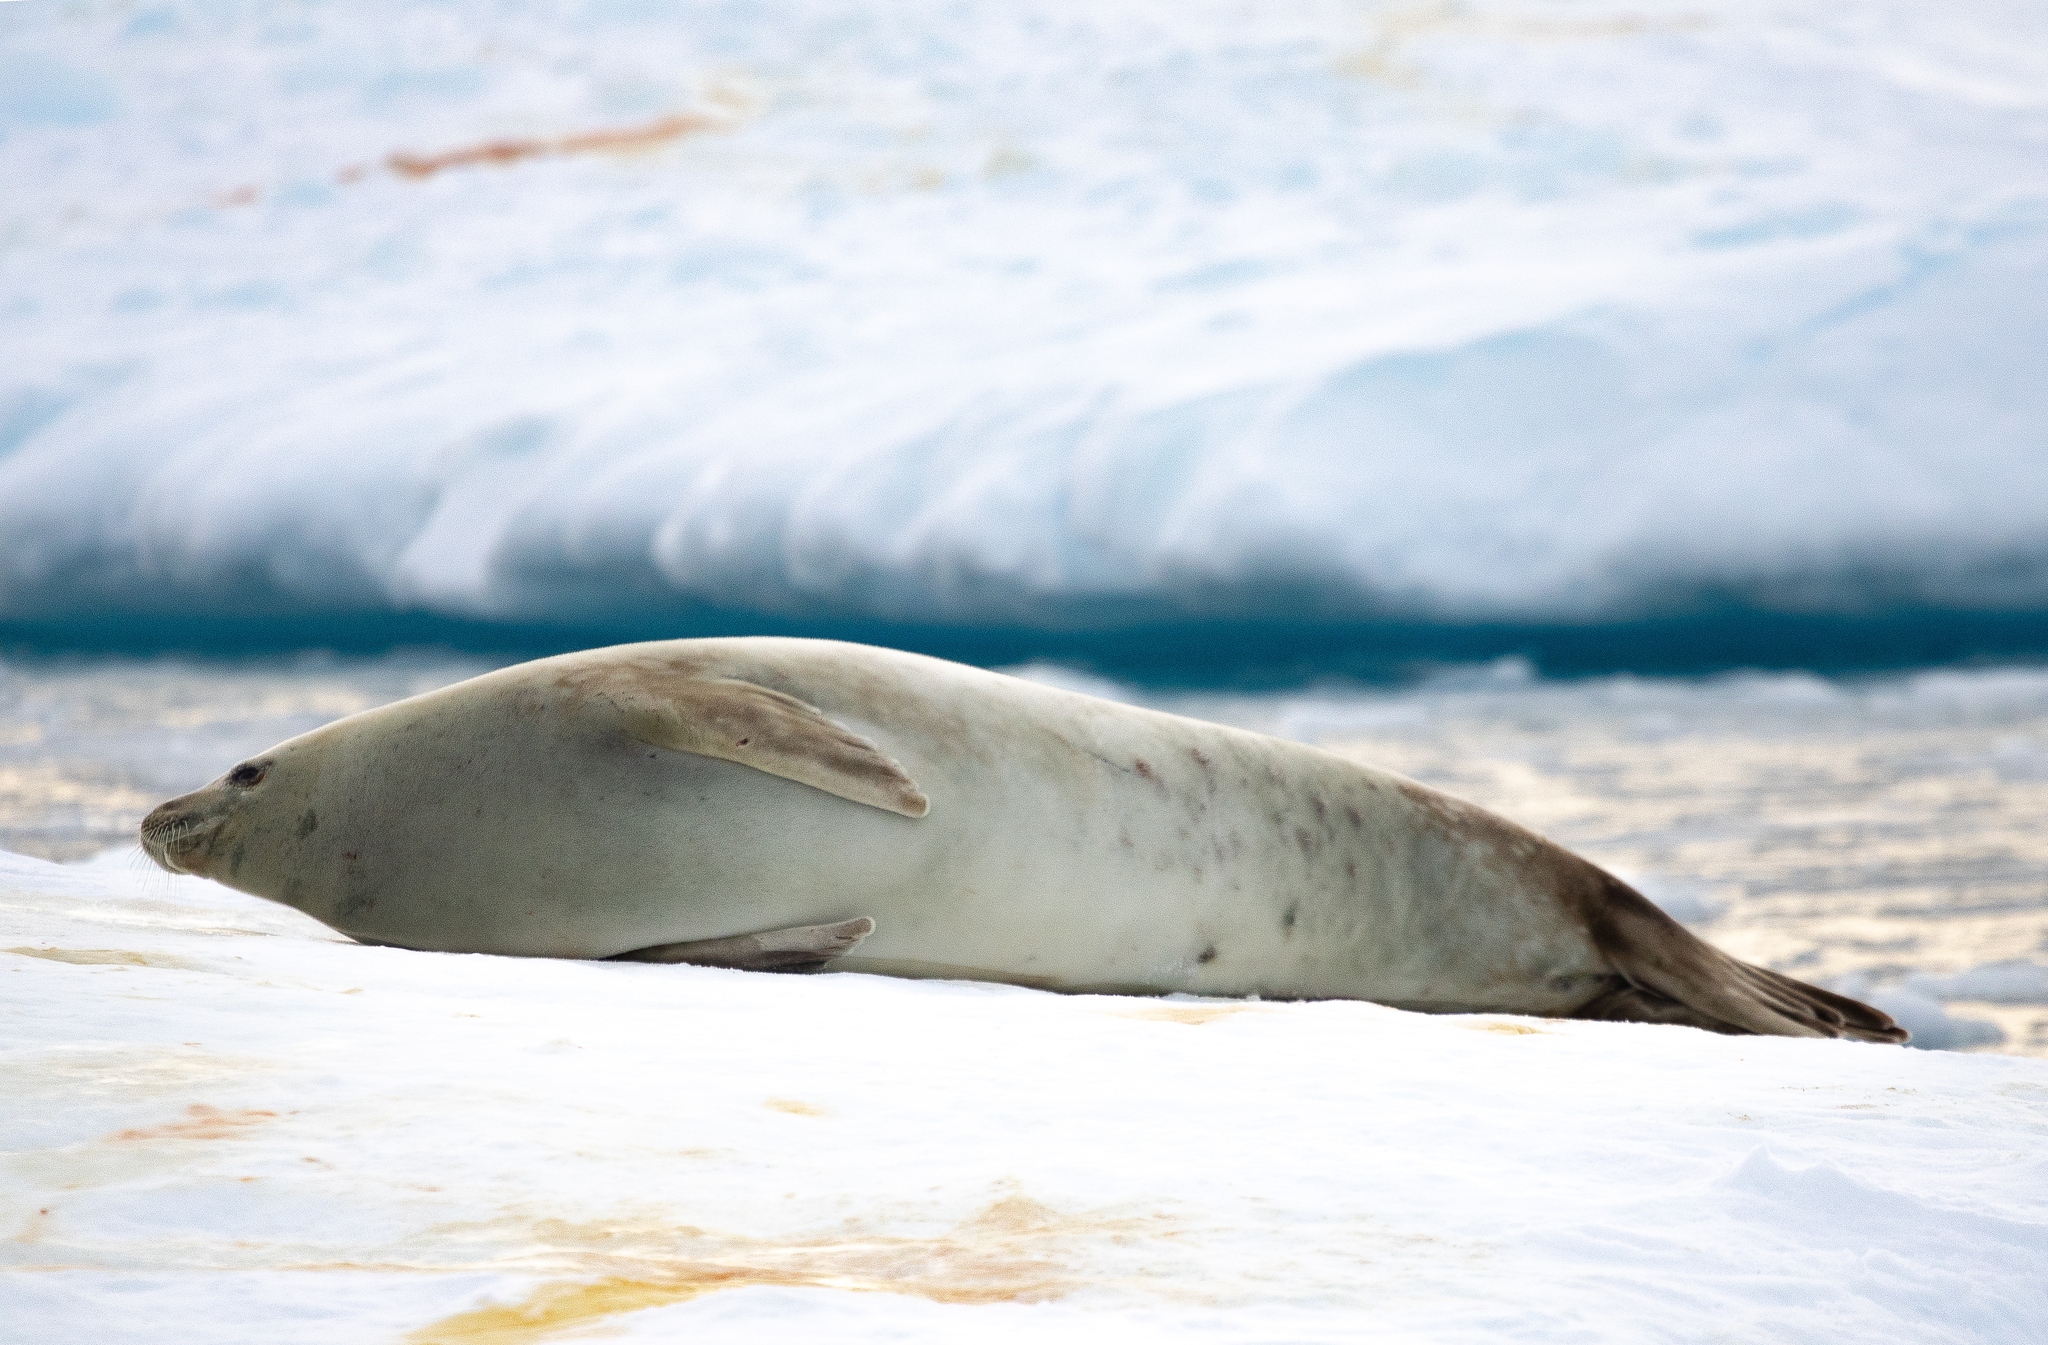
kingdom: Animalia
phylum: Chordata
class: Mammalia
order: Carnivora
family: Phocidae
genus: Lobodon
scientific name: Lobodon carcinophaga
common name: Crabeater seal
